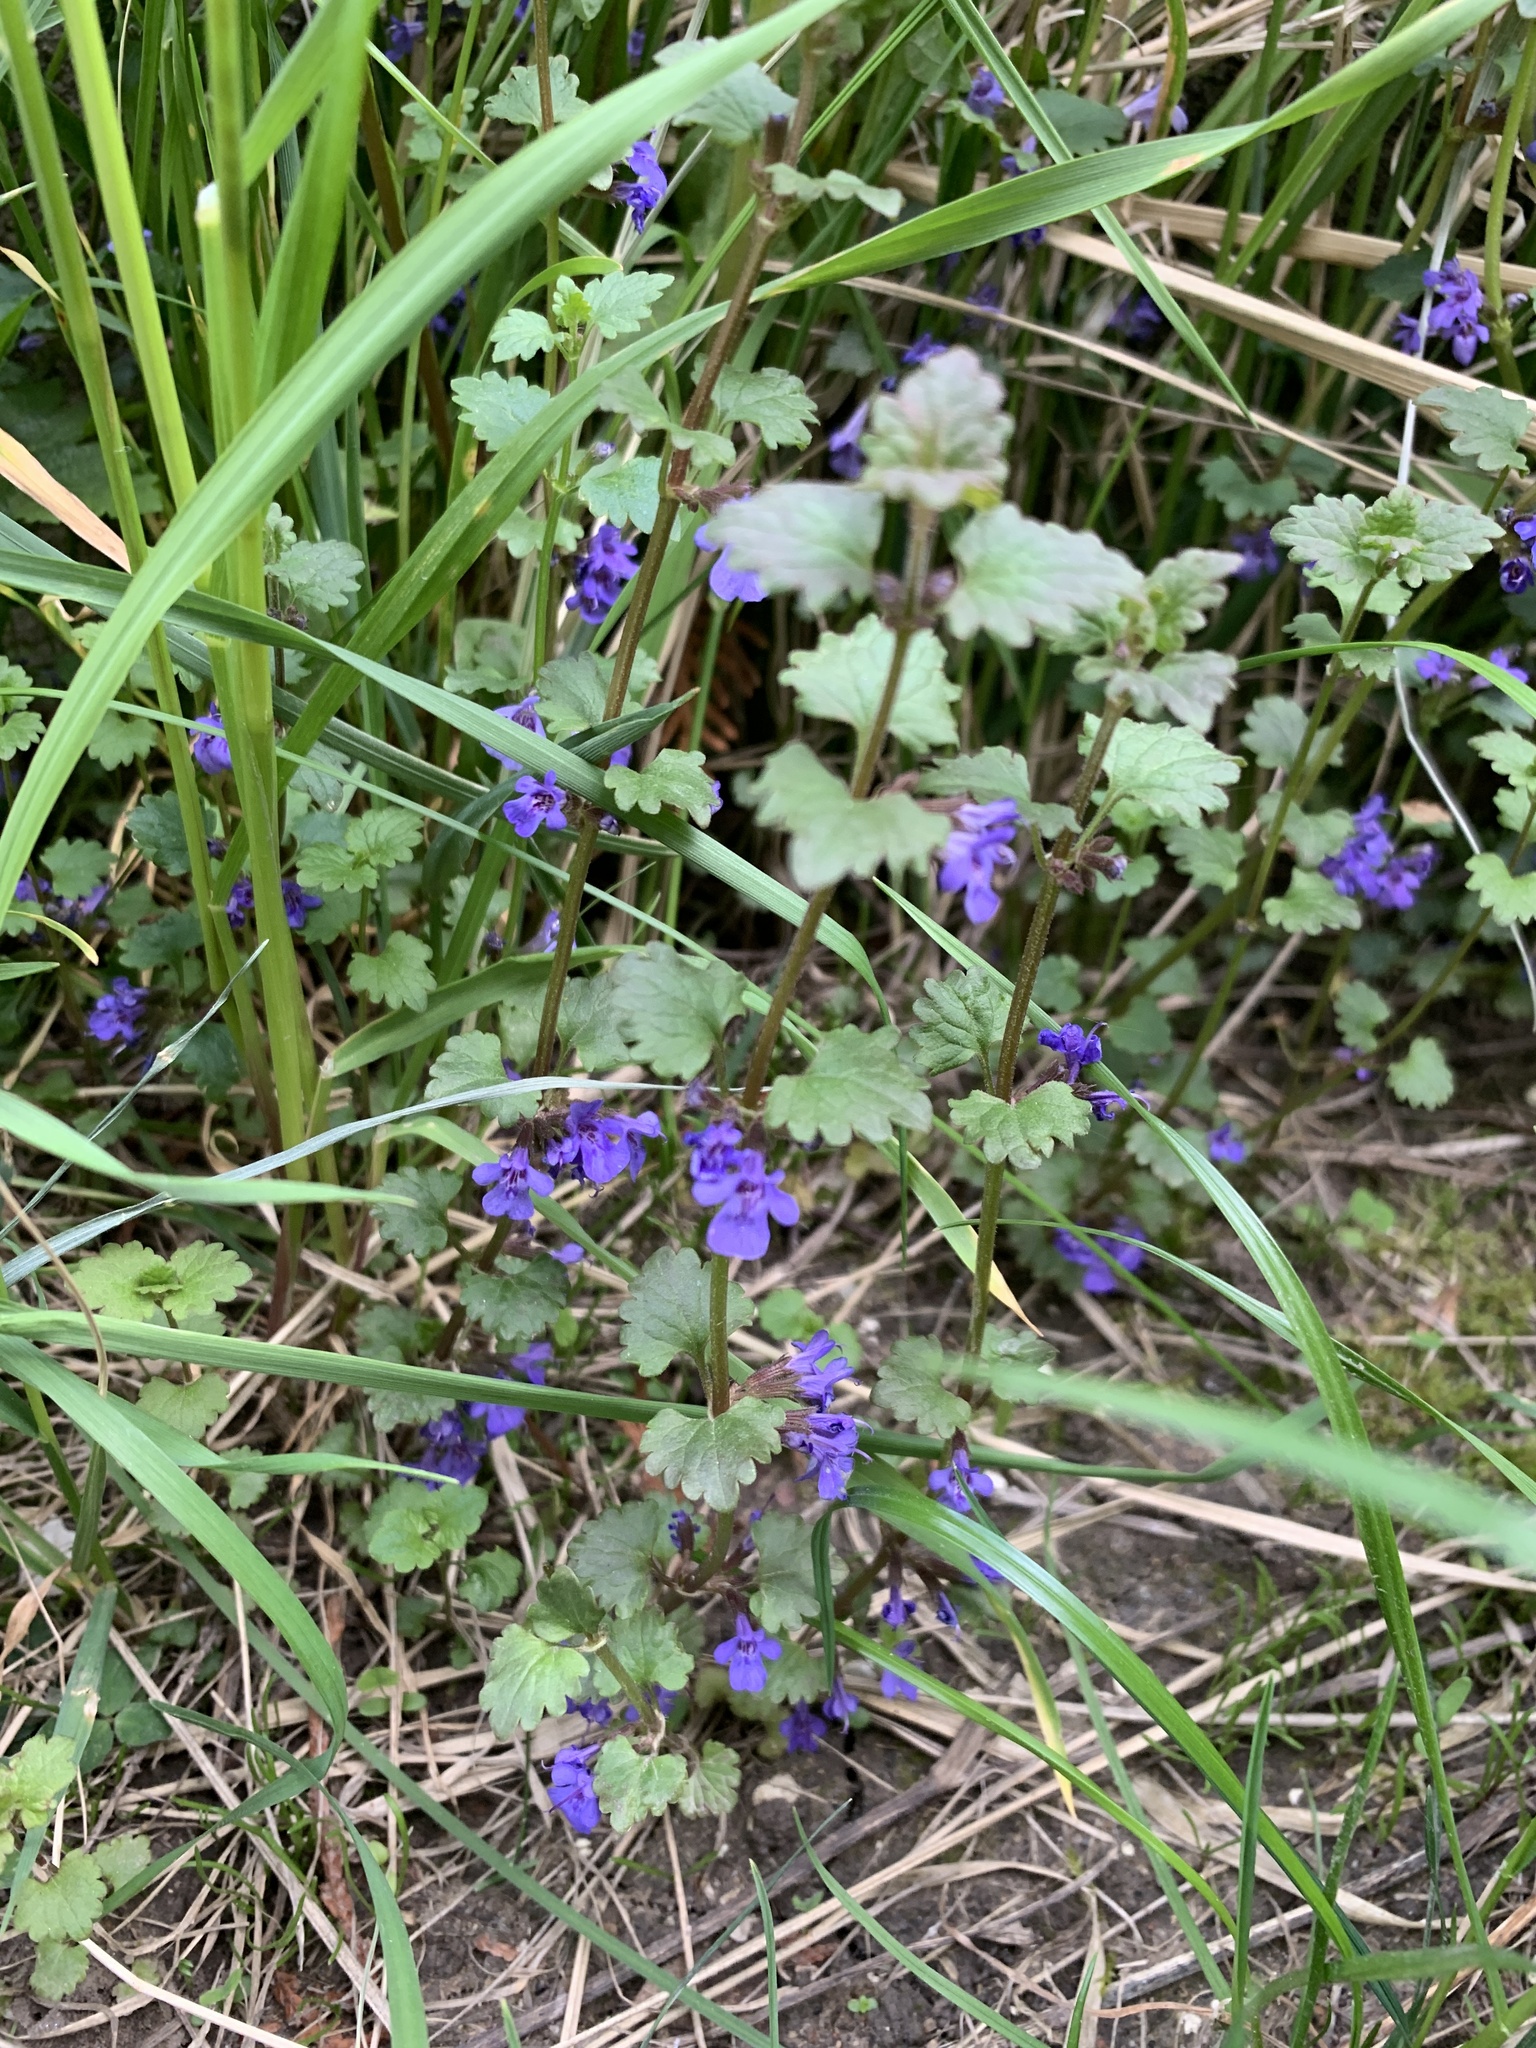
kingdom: Plantae
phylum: Tracheophyta
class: Magnoliopsida
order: Lamiales
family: Lamiaceae
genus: Glechoma
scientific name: Glechoma hederacea
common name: Ground ivy
